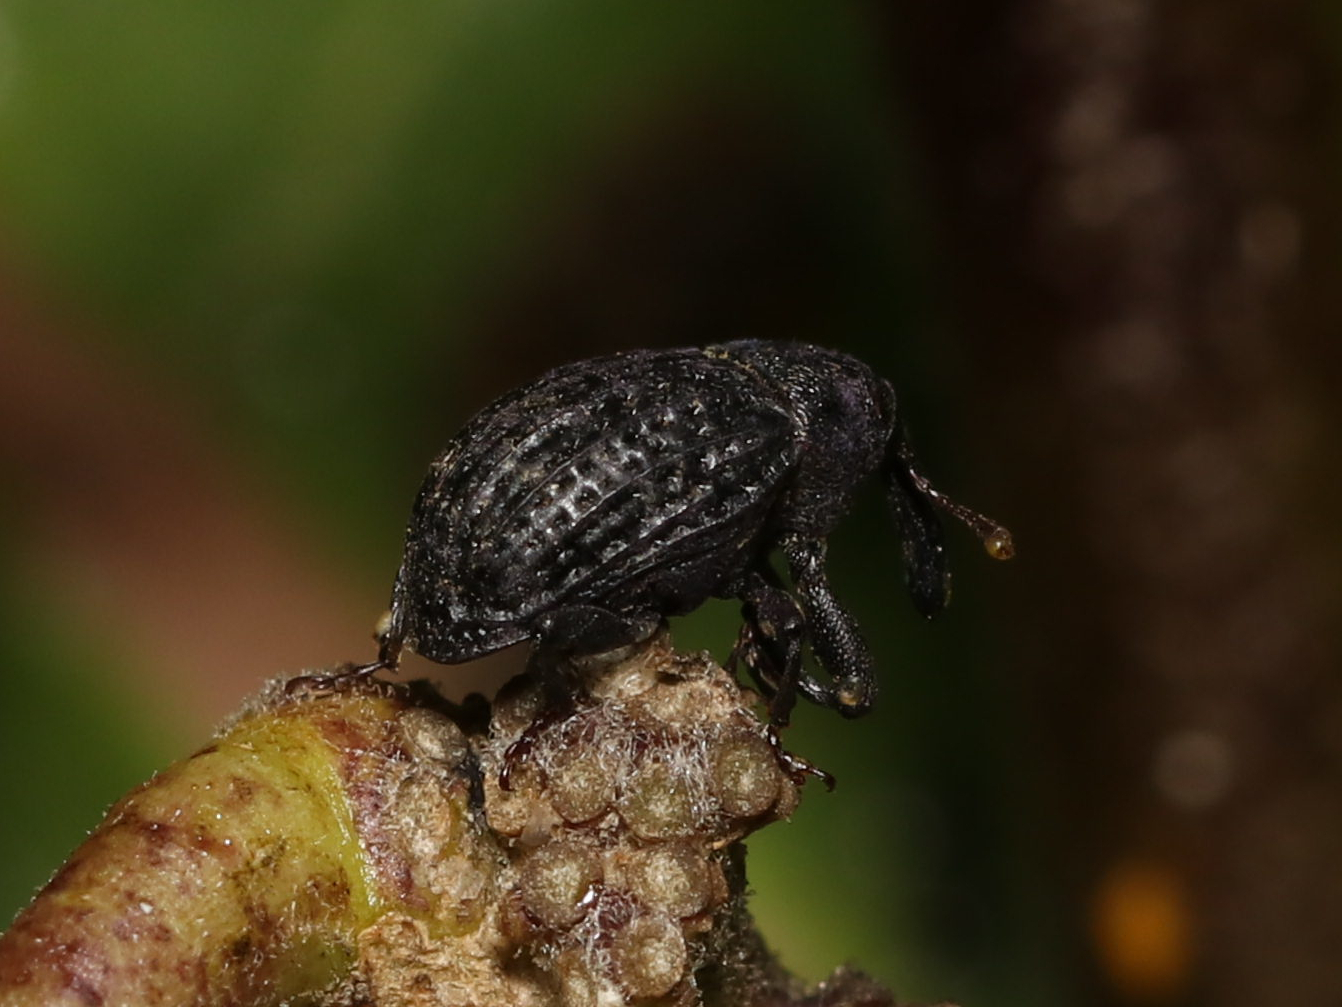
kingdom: Animalia
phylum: Arthropoda
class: Insecta
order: Coleoptera
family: Curculionidae
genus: Rhyssomatus
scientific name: Rhyssomatus lineaticollis
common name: Milkweed stem weevil
